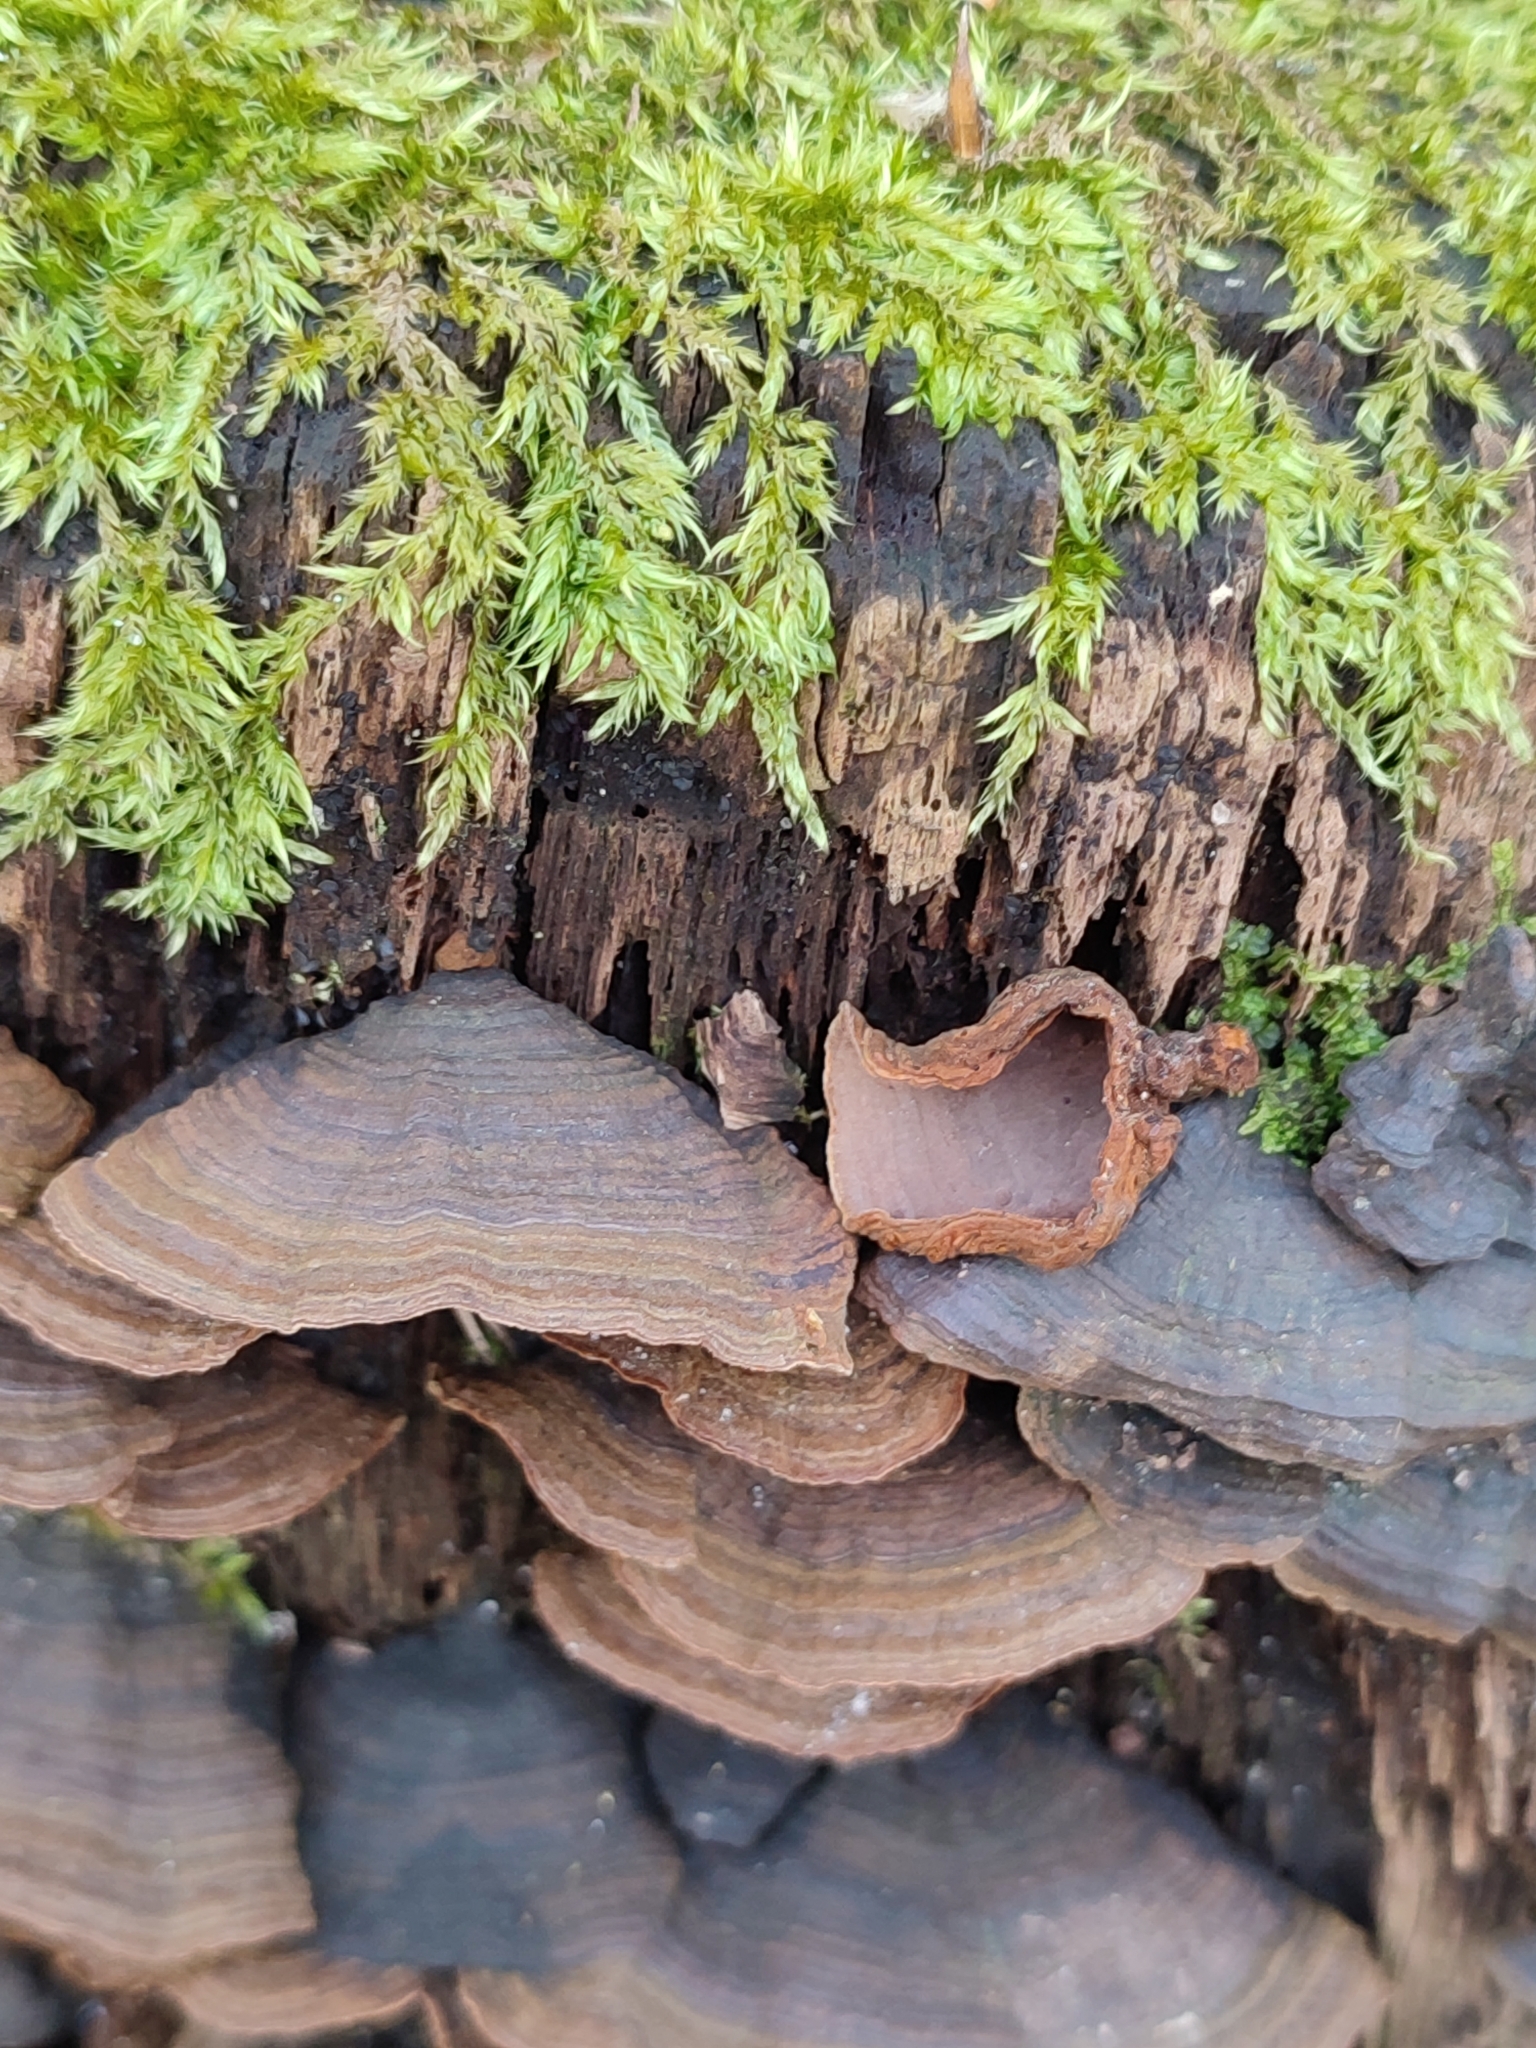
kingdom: Fungi
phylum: Basidiomycota
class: Agaricomycetes
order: Hymenochaetales
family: Hymenochaetaceae
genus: Hymenochaete
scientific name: Hymenochaete rubiginosa
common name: Oak curtain crust
